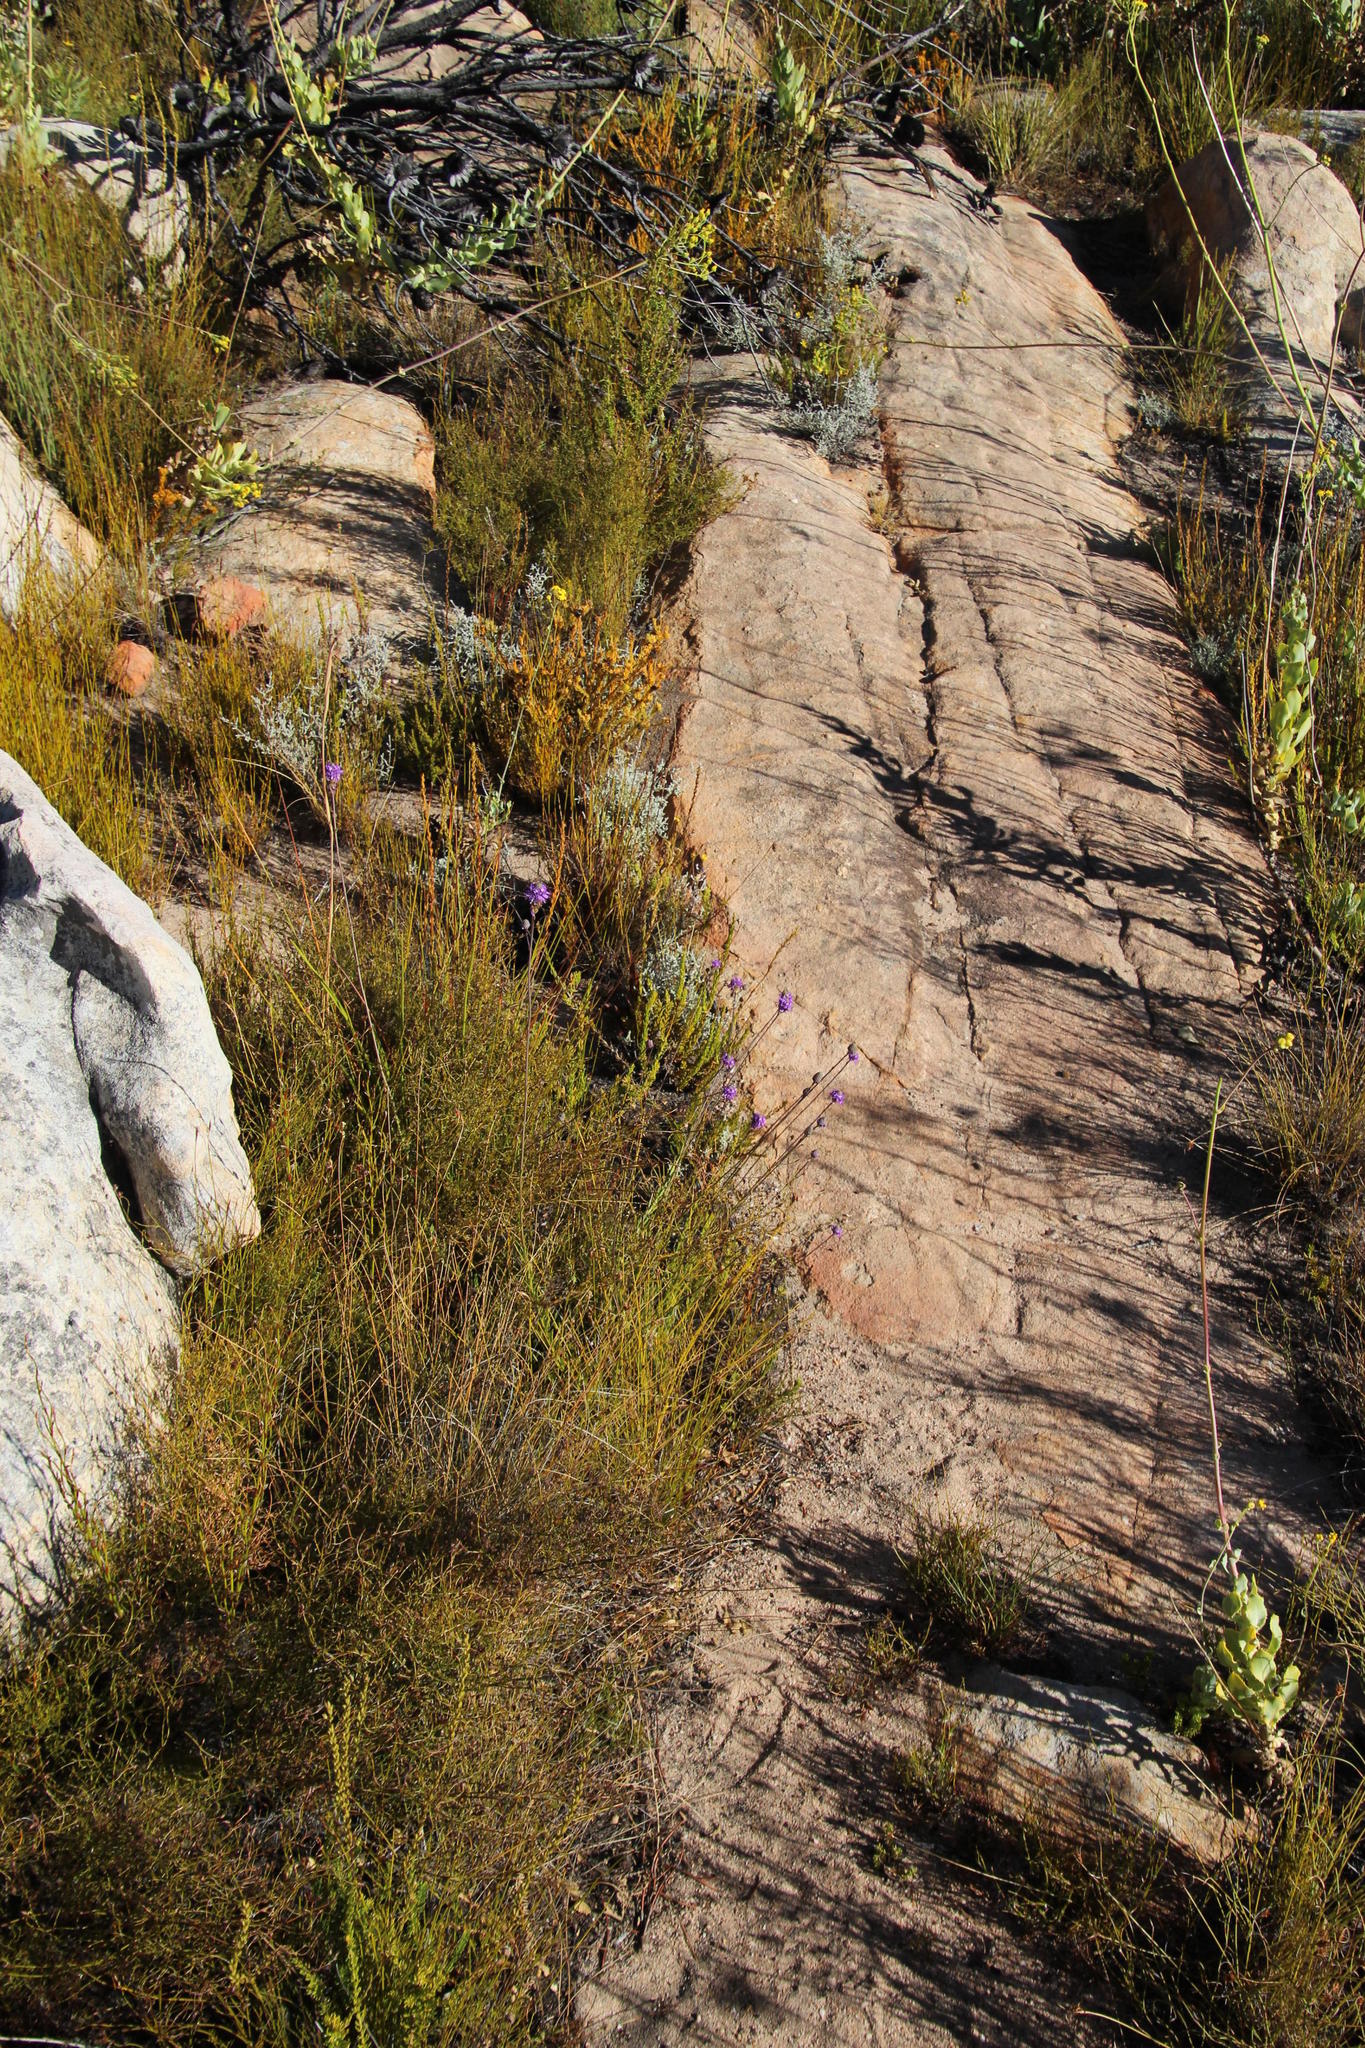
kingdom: Plantae
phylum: Tracheophyta
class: Magnoliopsida
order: Lamiales
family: Scrophulariaceae
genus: Pseudoselago
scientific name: Pseudoselago similis
